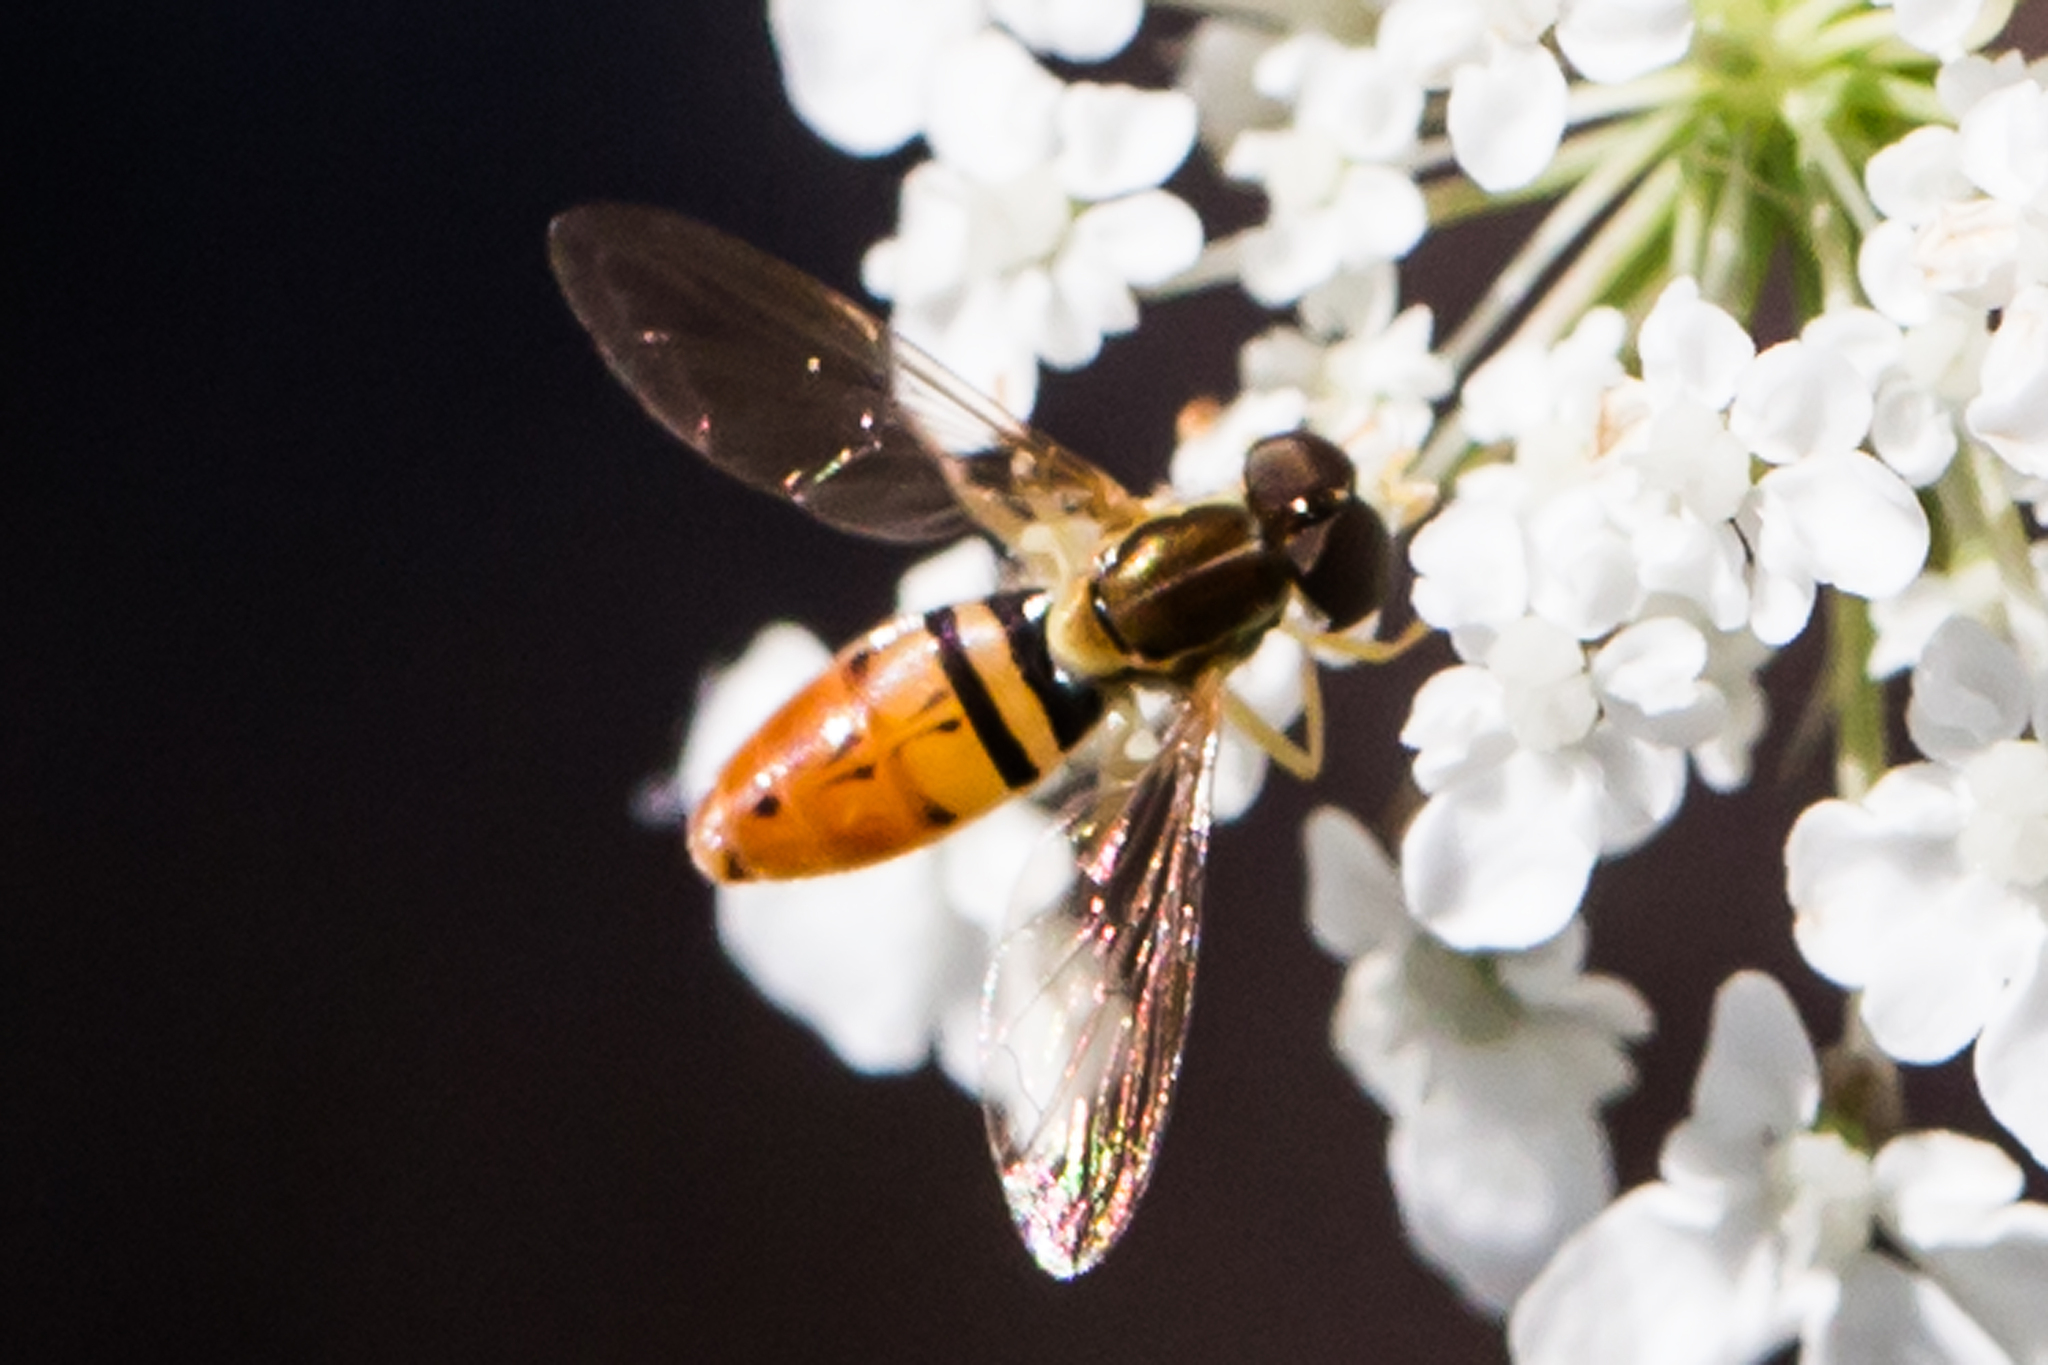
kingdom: Animalia
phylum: Arthropoda
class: Insecta
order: Diptera
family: Syrphidae
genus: Toxomerus
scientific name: Toxomerus marginatus
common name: Syrphid fly
